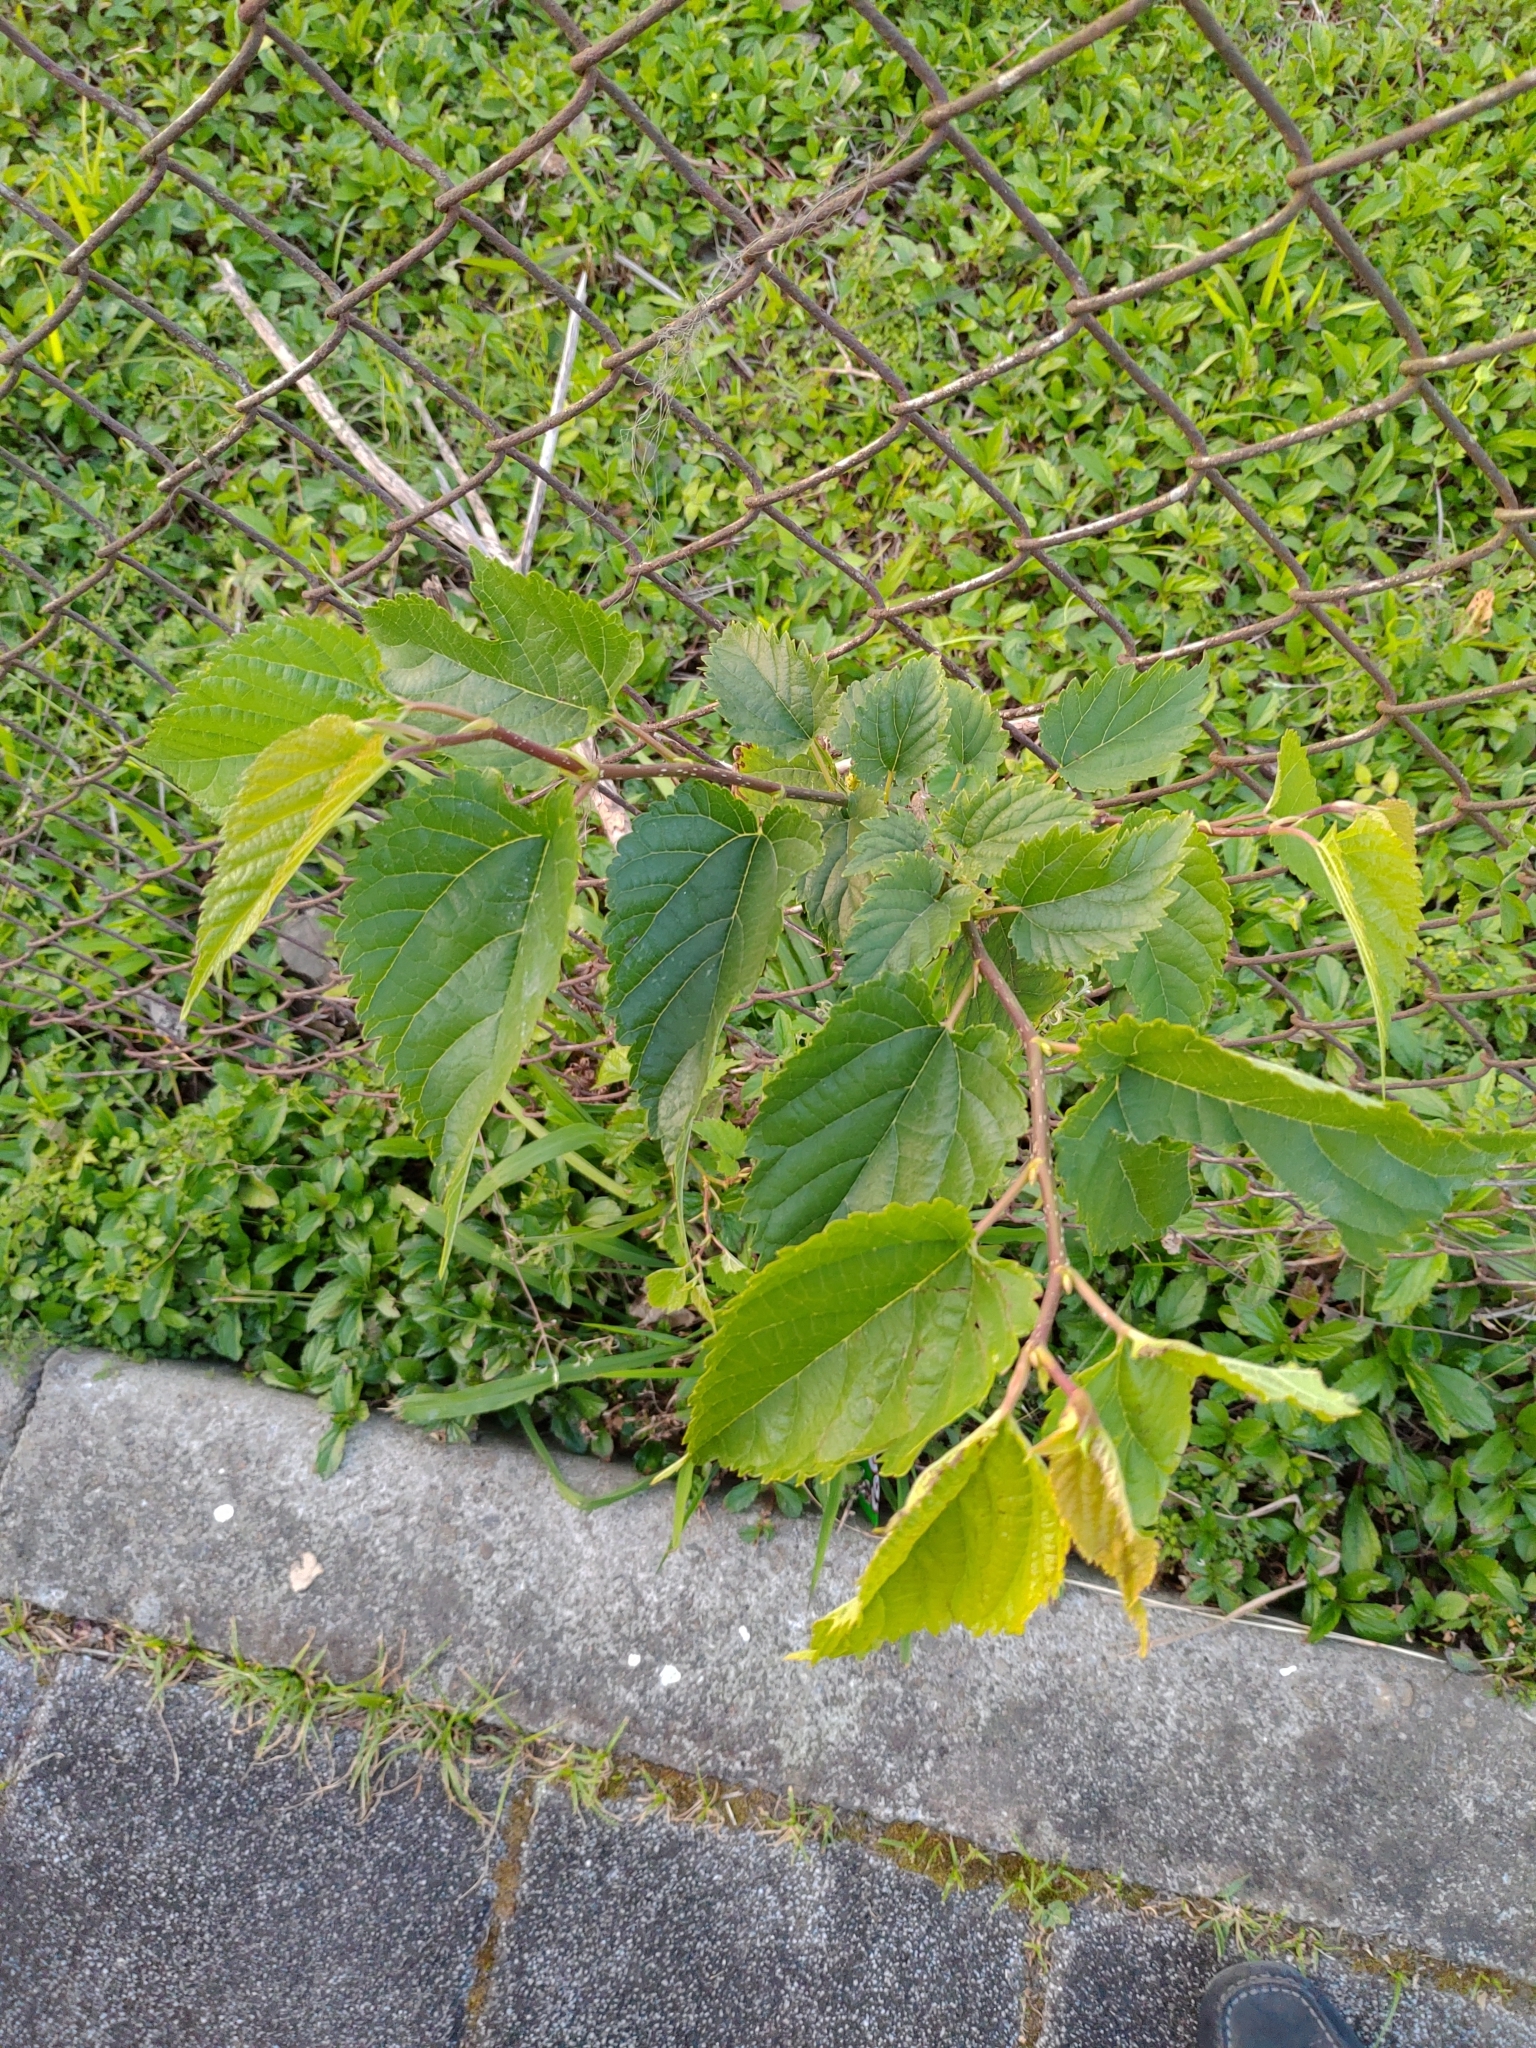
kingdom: Plantae
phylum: Tracheophyta
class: Magnoliopsida
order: Rosales
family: Moraceae
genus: Morus
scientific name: Morus indica
